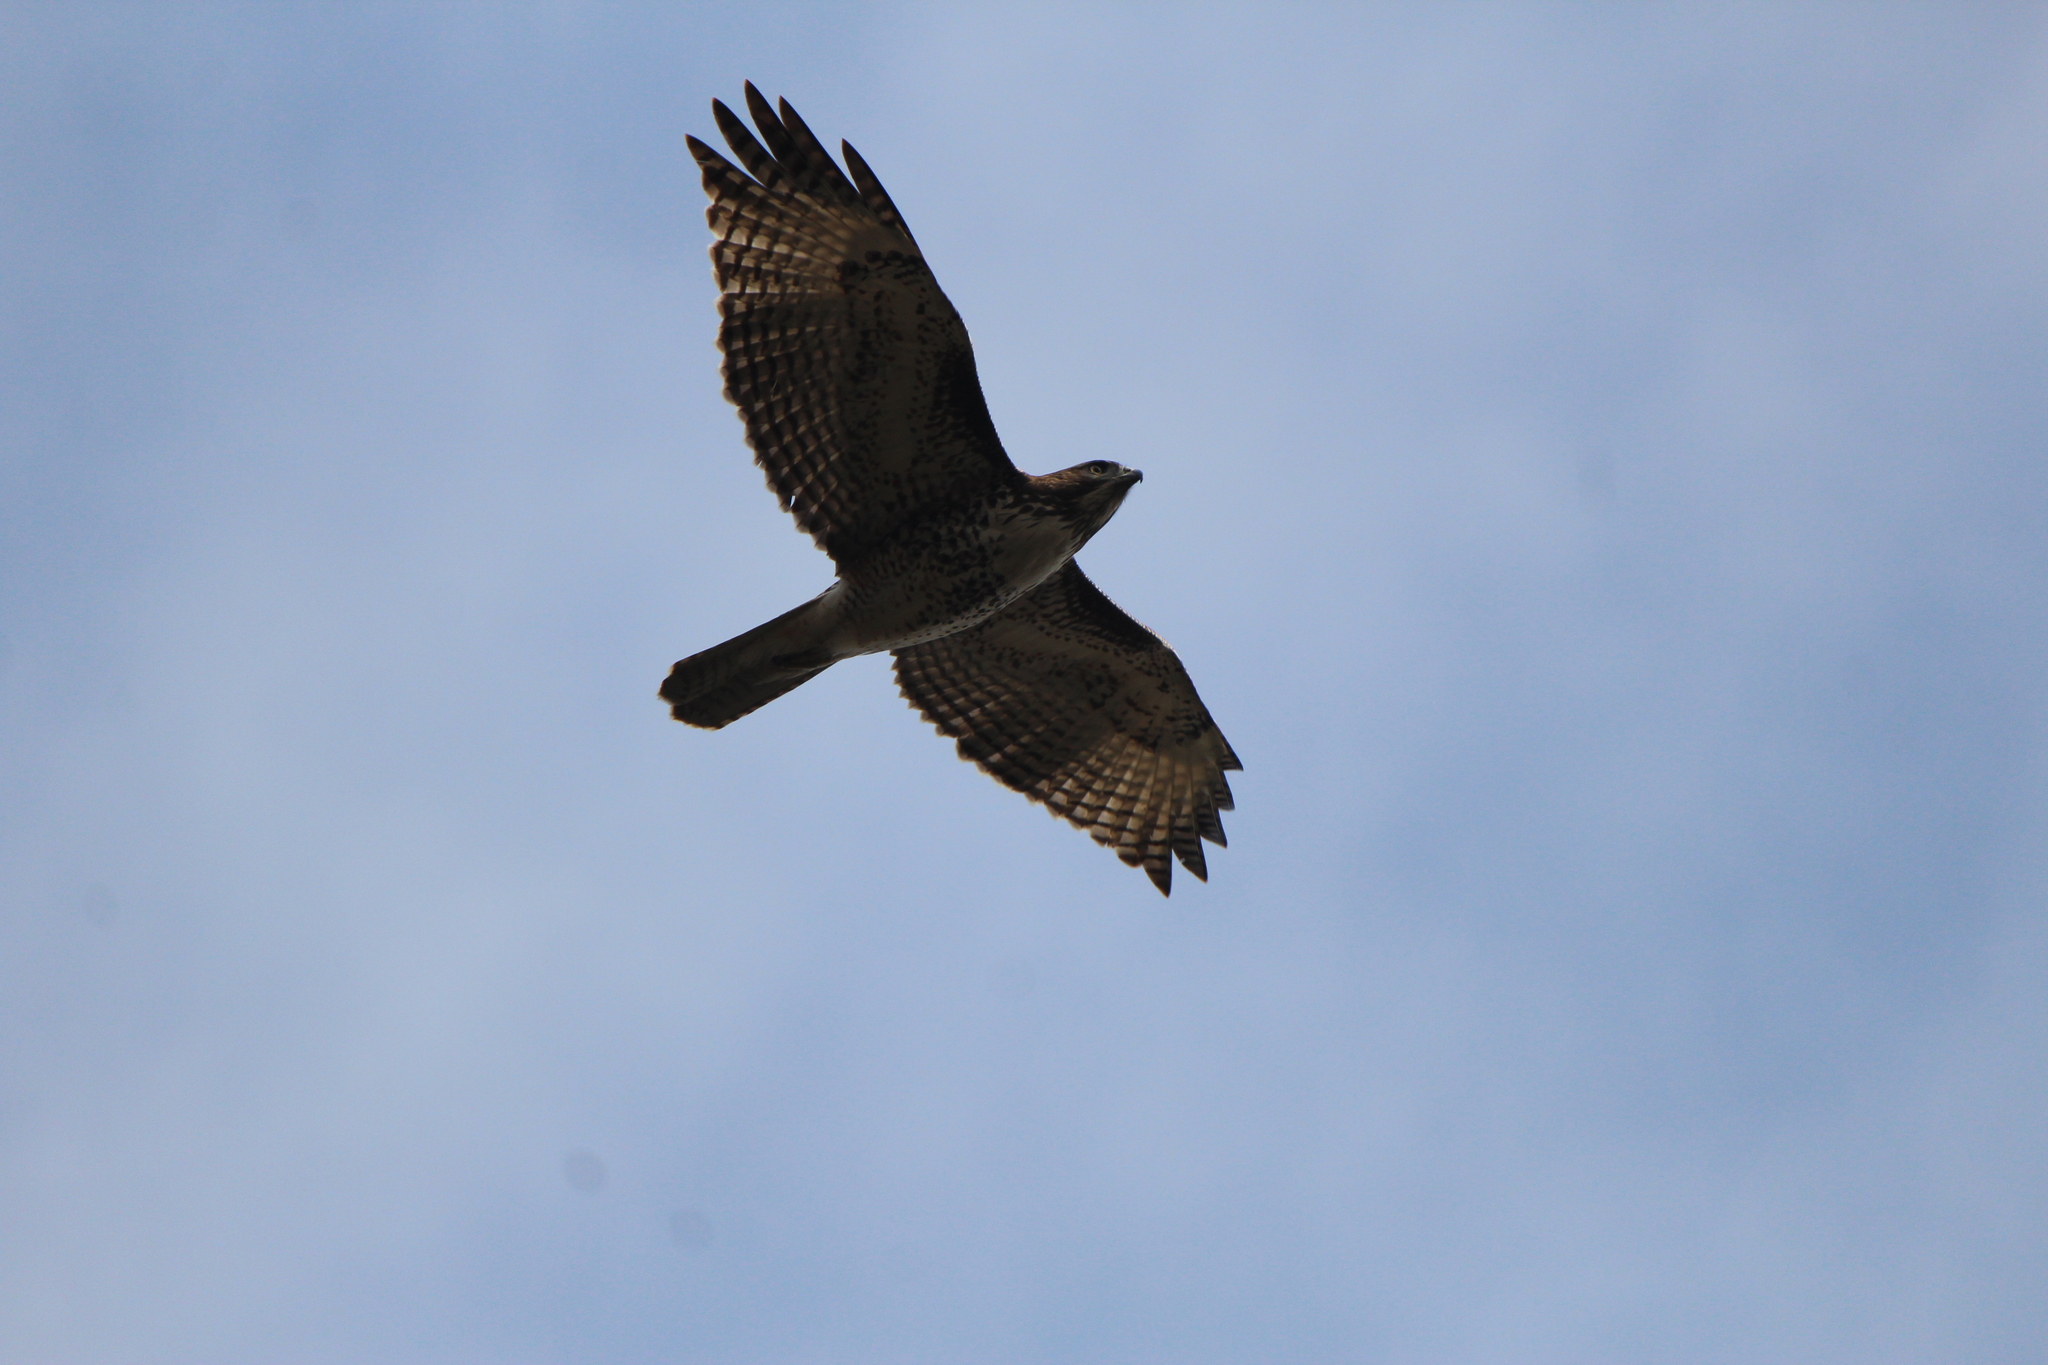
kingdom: Animalia
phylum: Chordata
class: Aves
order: Accipitriformes
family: Accipitridae
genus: Buteo
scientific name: Buteo jamaicensis
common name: Red-tailed hawk
